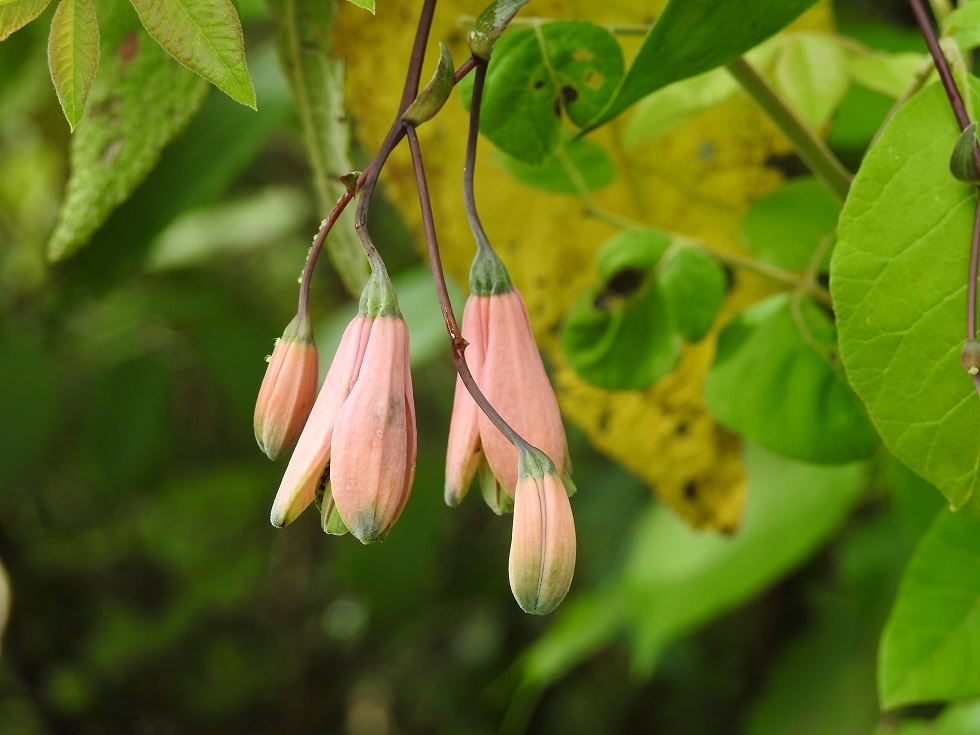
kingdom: Plantae
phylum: Tracheophyta
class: Liliopsida
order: Liliales
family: Alstroemeriaceae
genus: Bomarea
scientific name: Bomarea edulis
